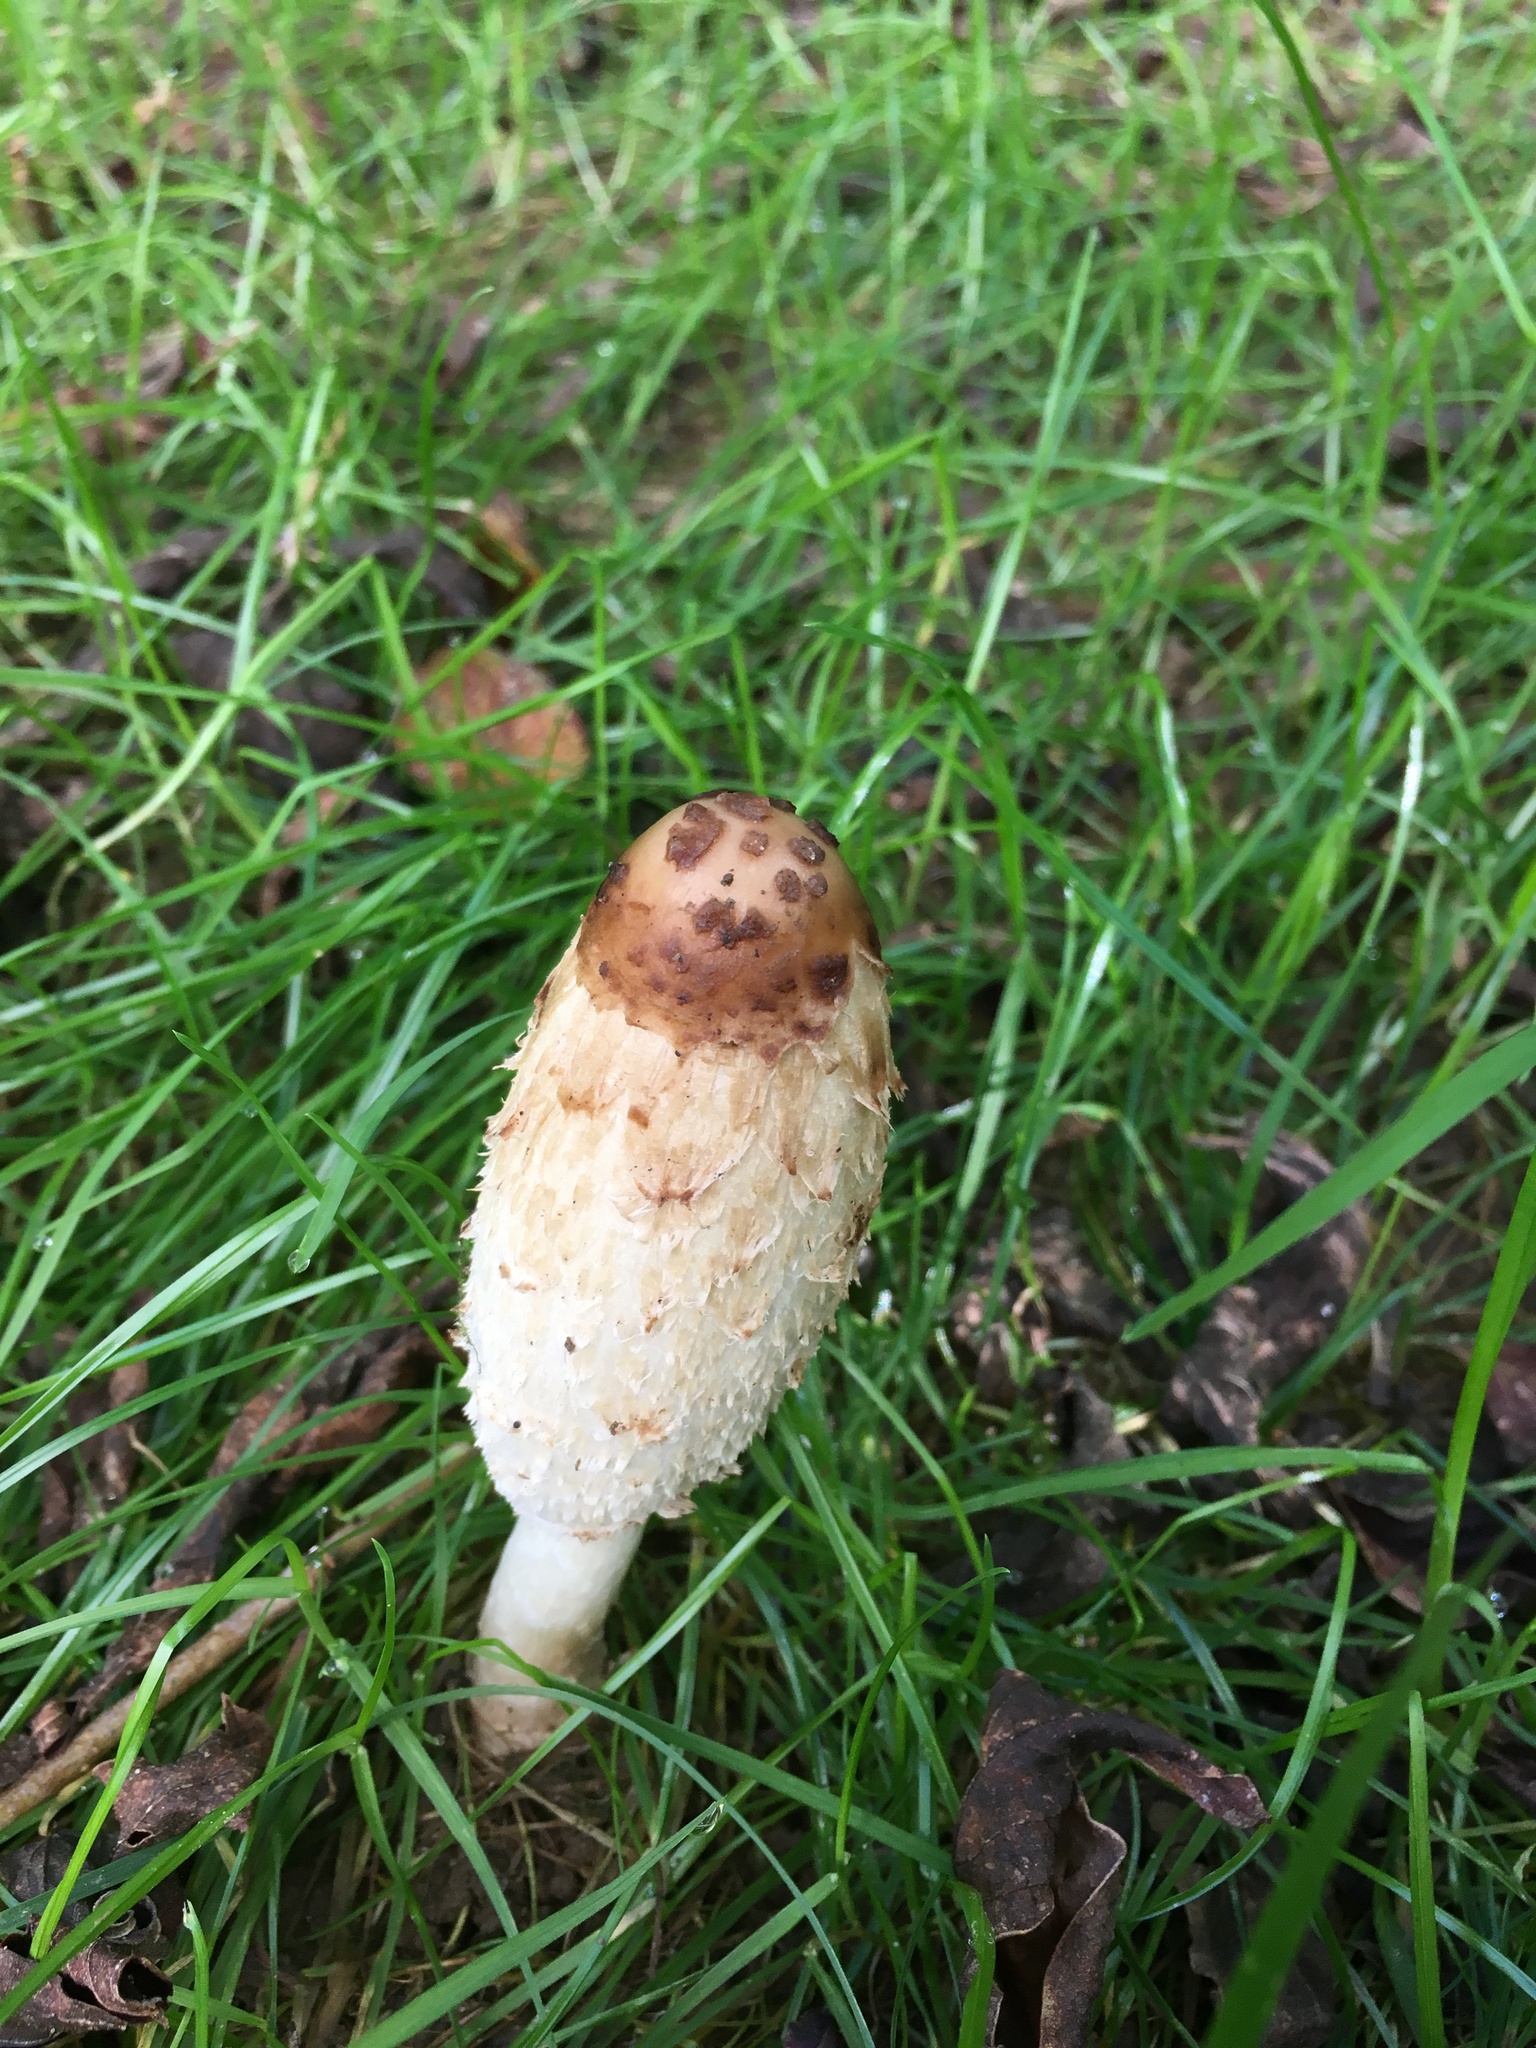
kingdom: Fungi
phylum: Basidiomycota
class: Agaricomycetes
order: Agaricales
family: Agaricaceae
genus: Coprinus
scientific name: Coprinus comatus
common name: Lawyer's wig
